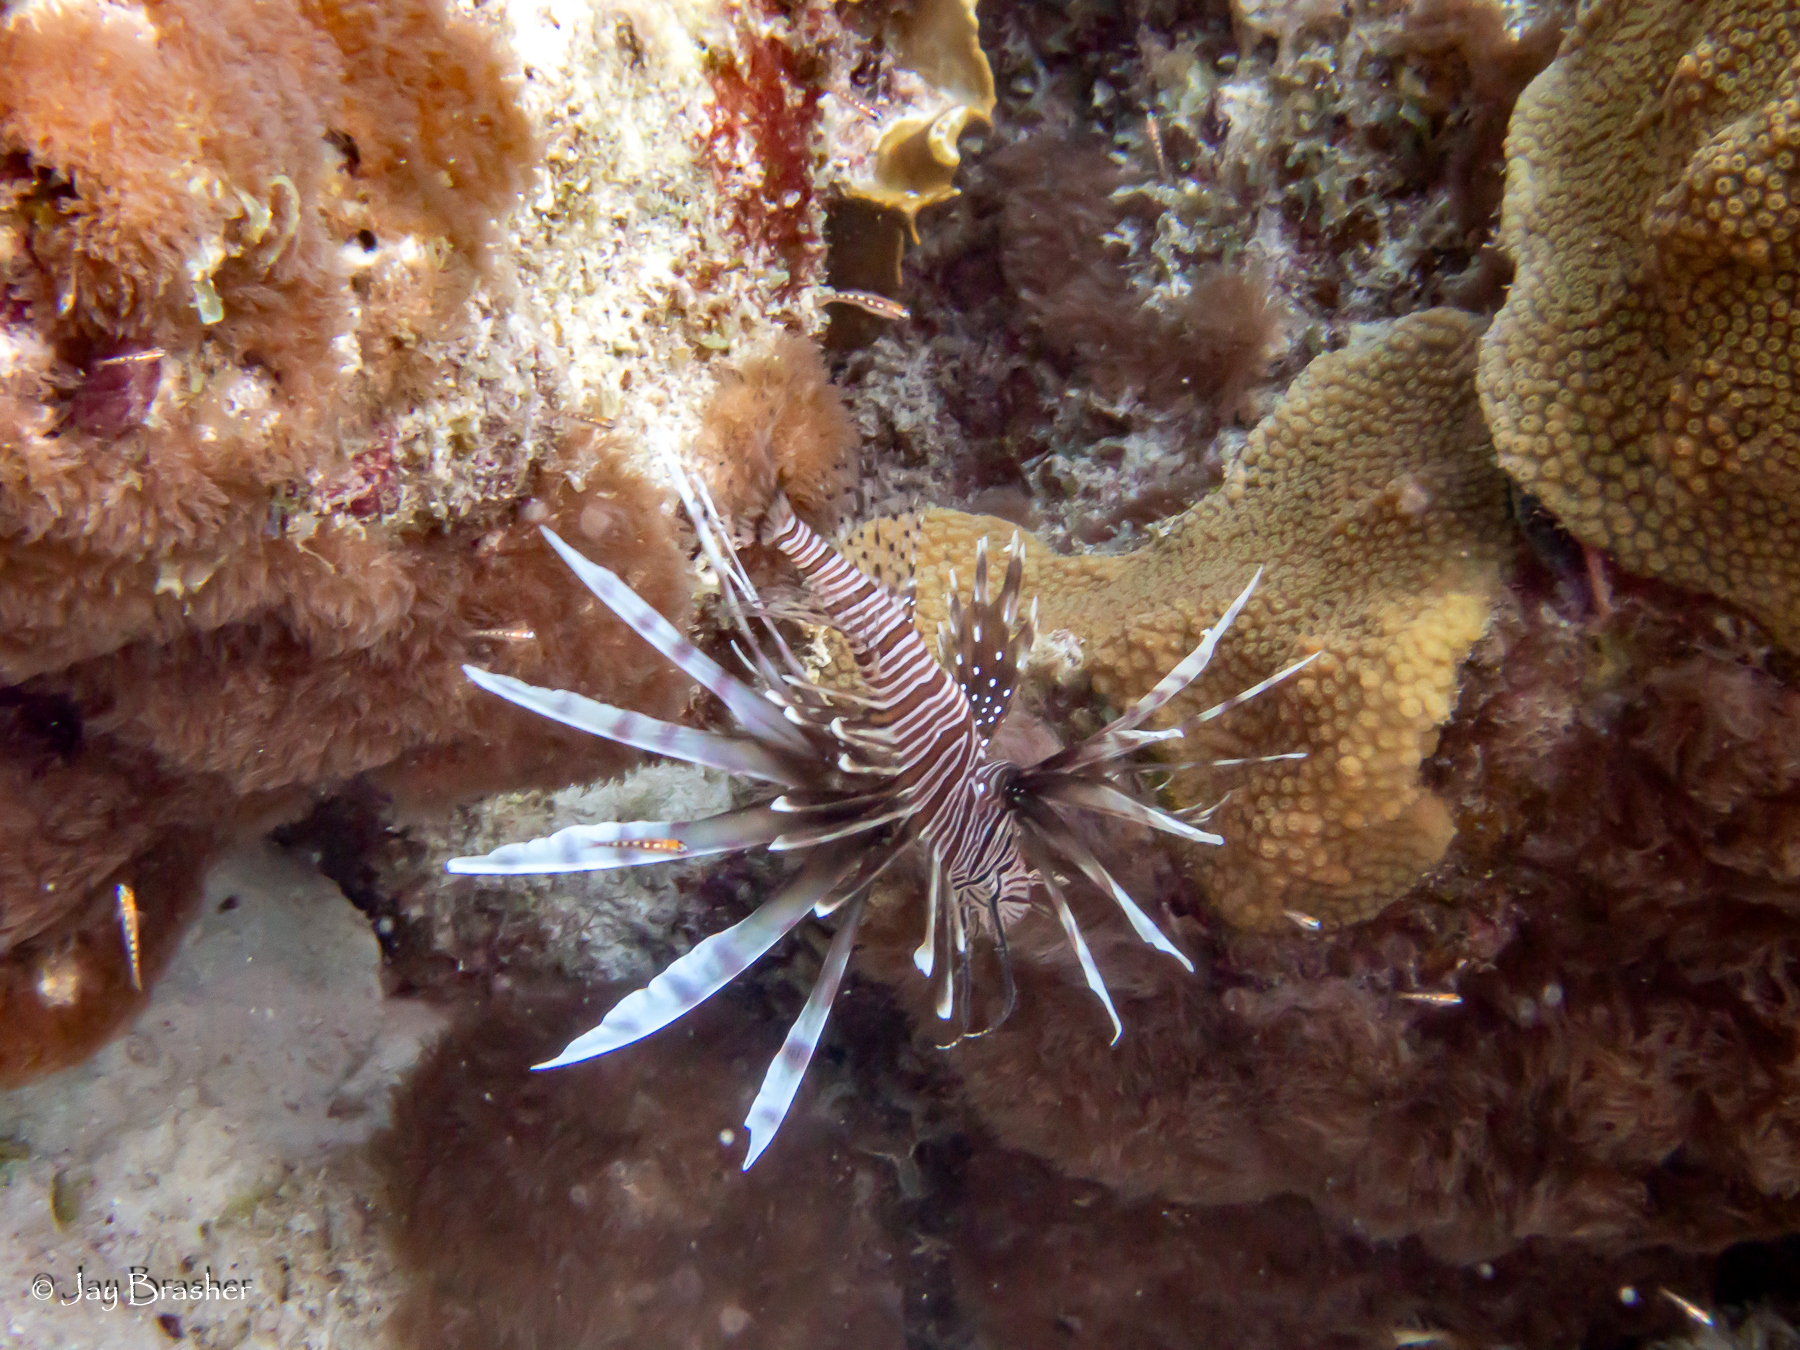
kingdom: Animalia
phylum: Chordata
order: Scorpaeniformes
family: Scorpaenidae
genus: Pterois
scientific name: Pterois volitans
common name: Lionfish
